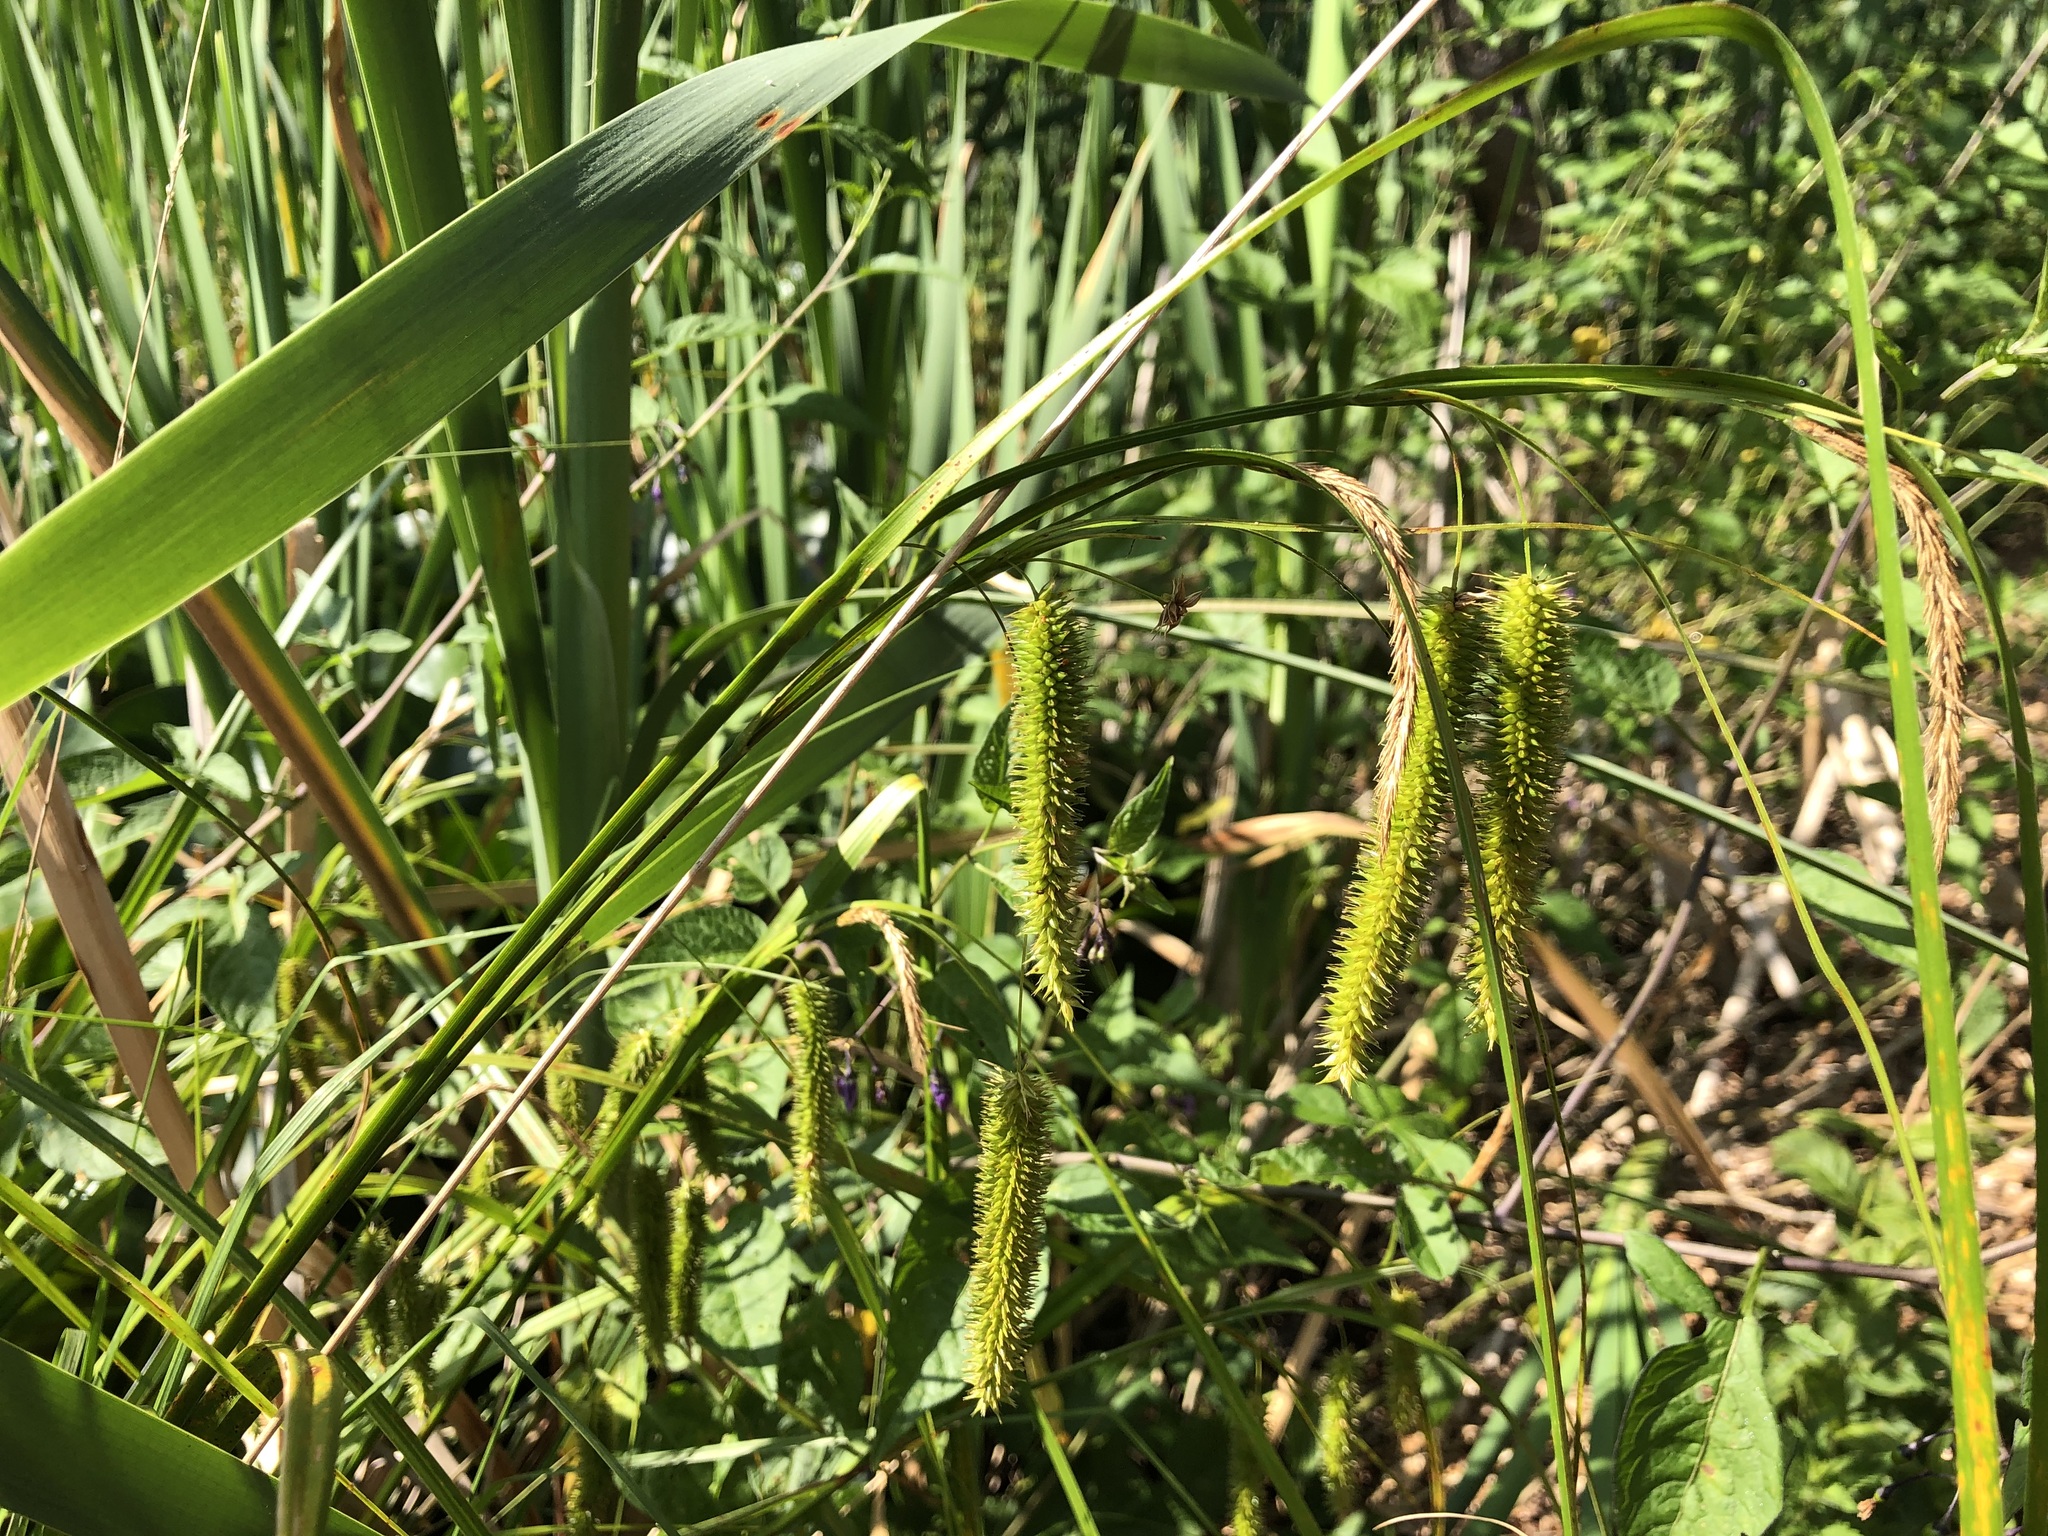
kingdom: Plantae
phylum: Tracheophyta
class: Liliopsida
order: Poales
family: Cyperaceae
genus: Carex
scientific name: Carex pseudocyperus
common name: Cyperus sedge
